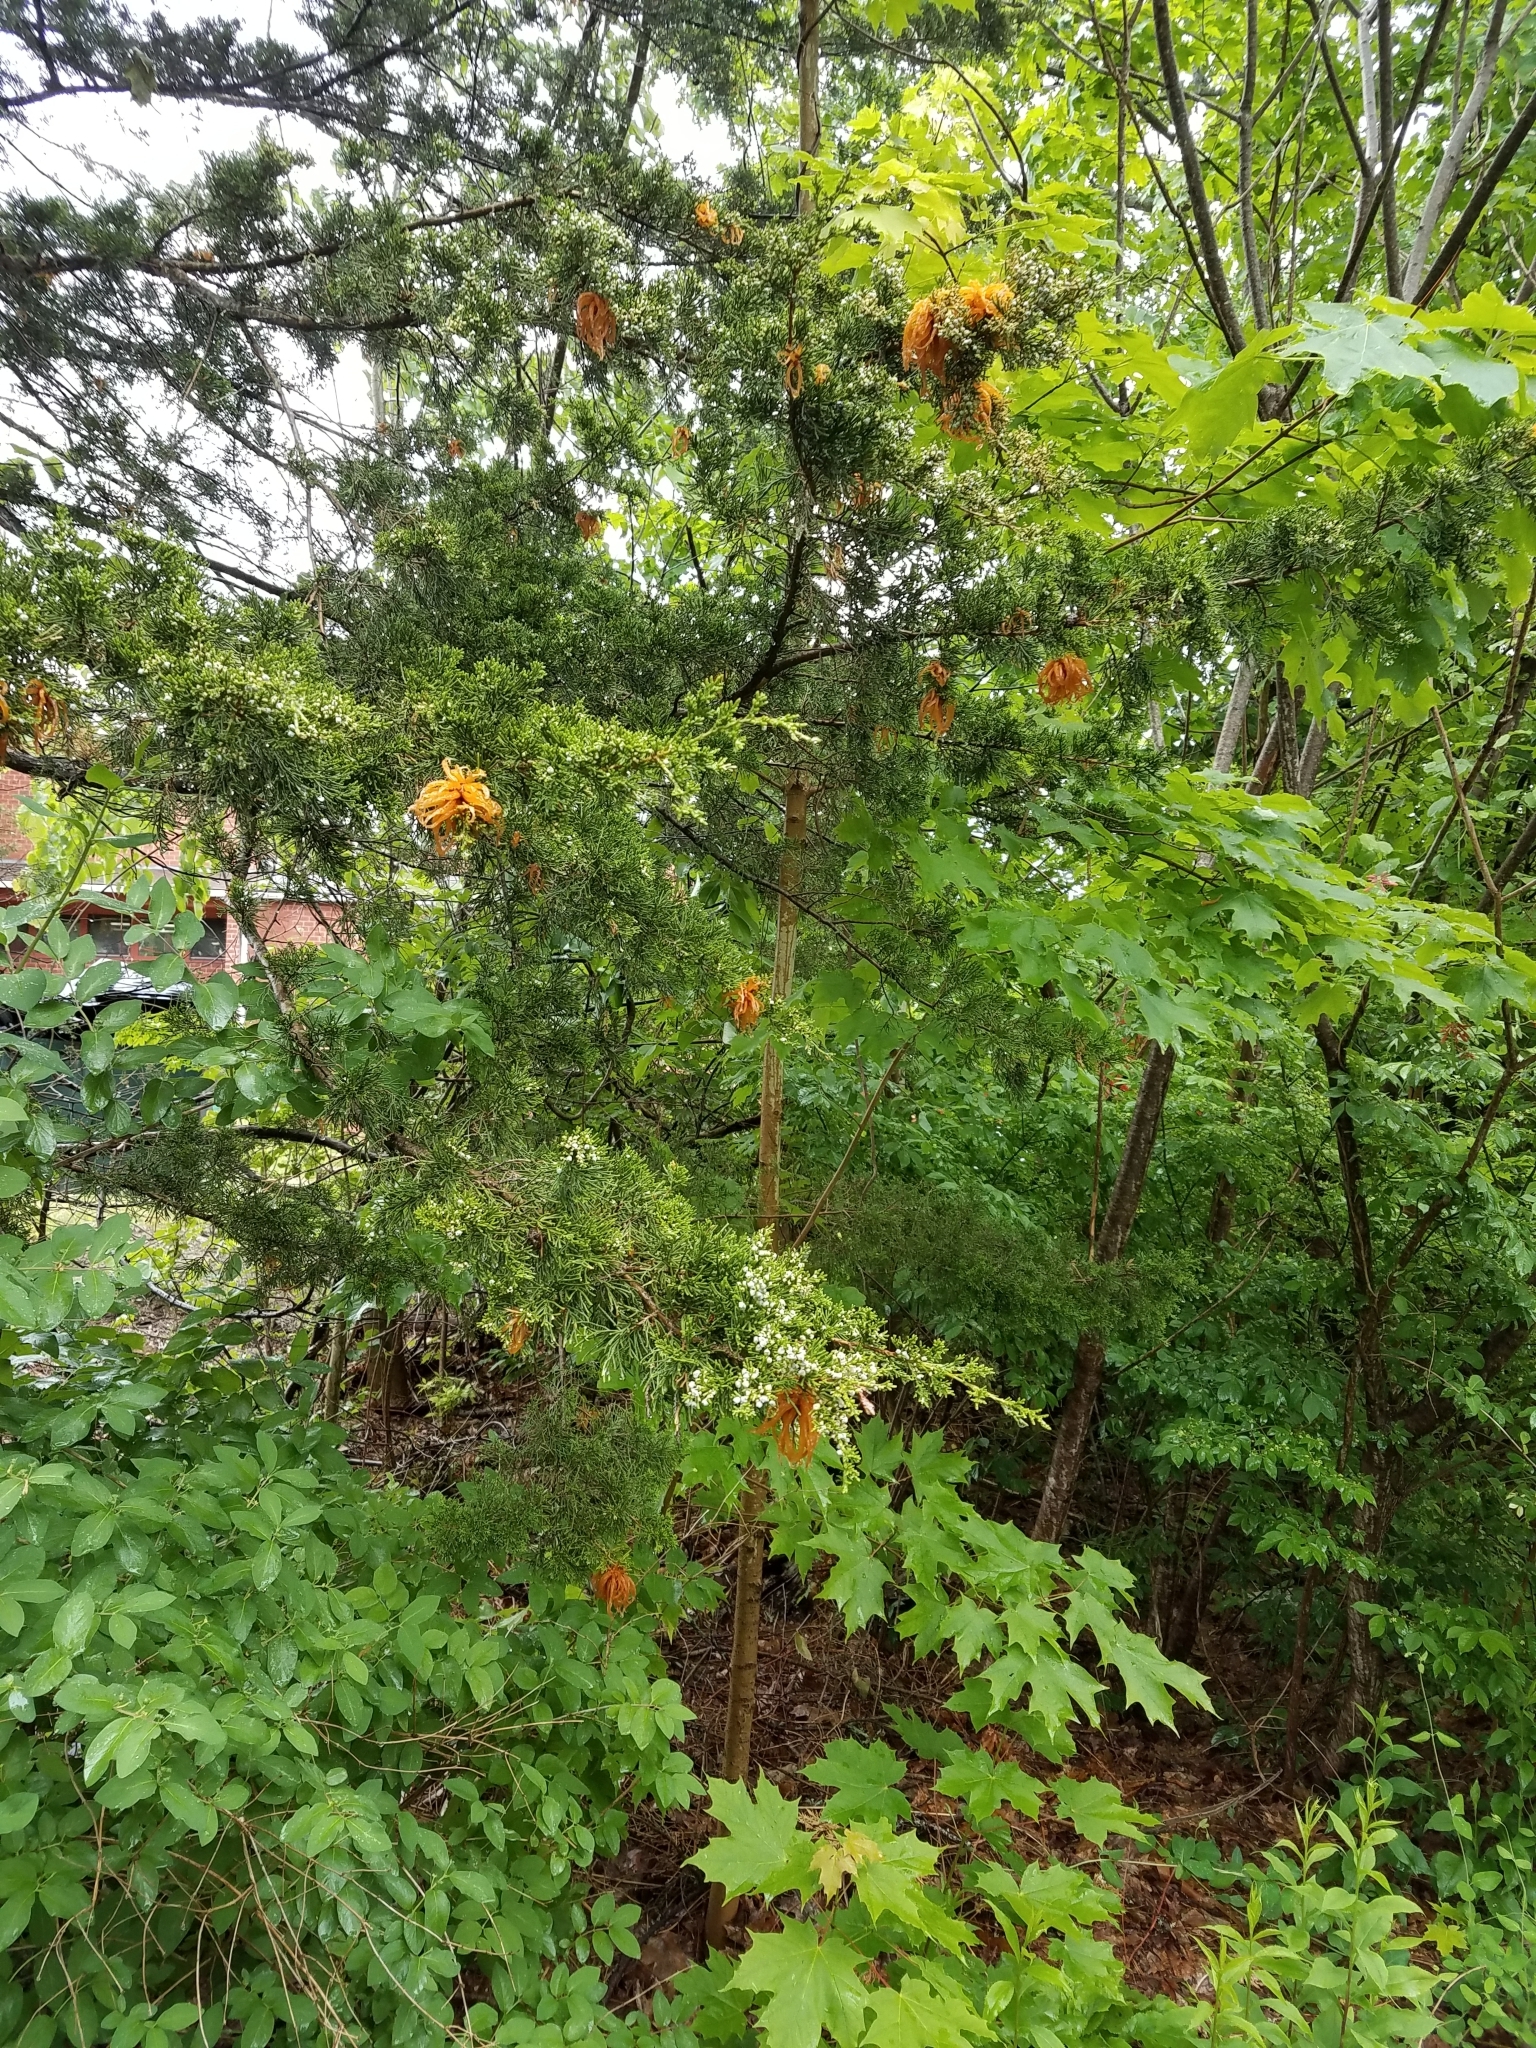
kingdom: Fungi
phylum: Basidiomycota
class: Pucciniomycetes
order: Pucciniales
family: Gymnosporangiaceae
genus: Gymnosporangium
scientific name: Gymnosporangium juniperi-virginianae
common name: Juniper-apple rust
